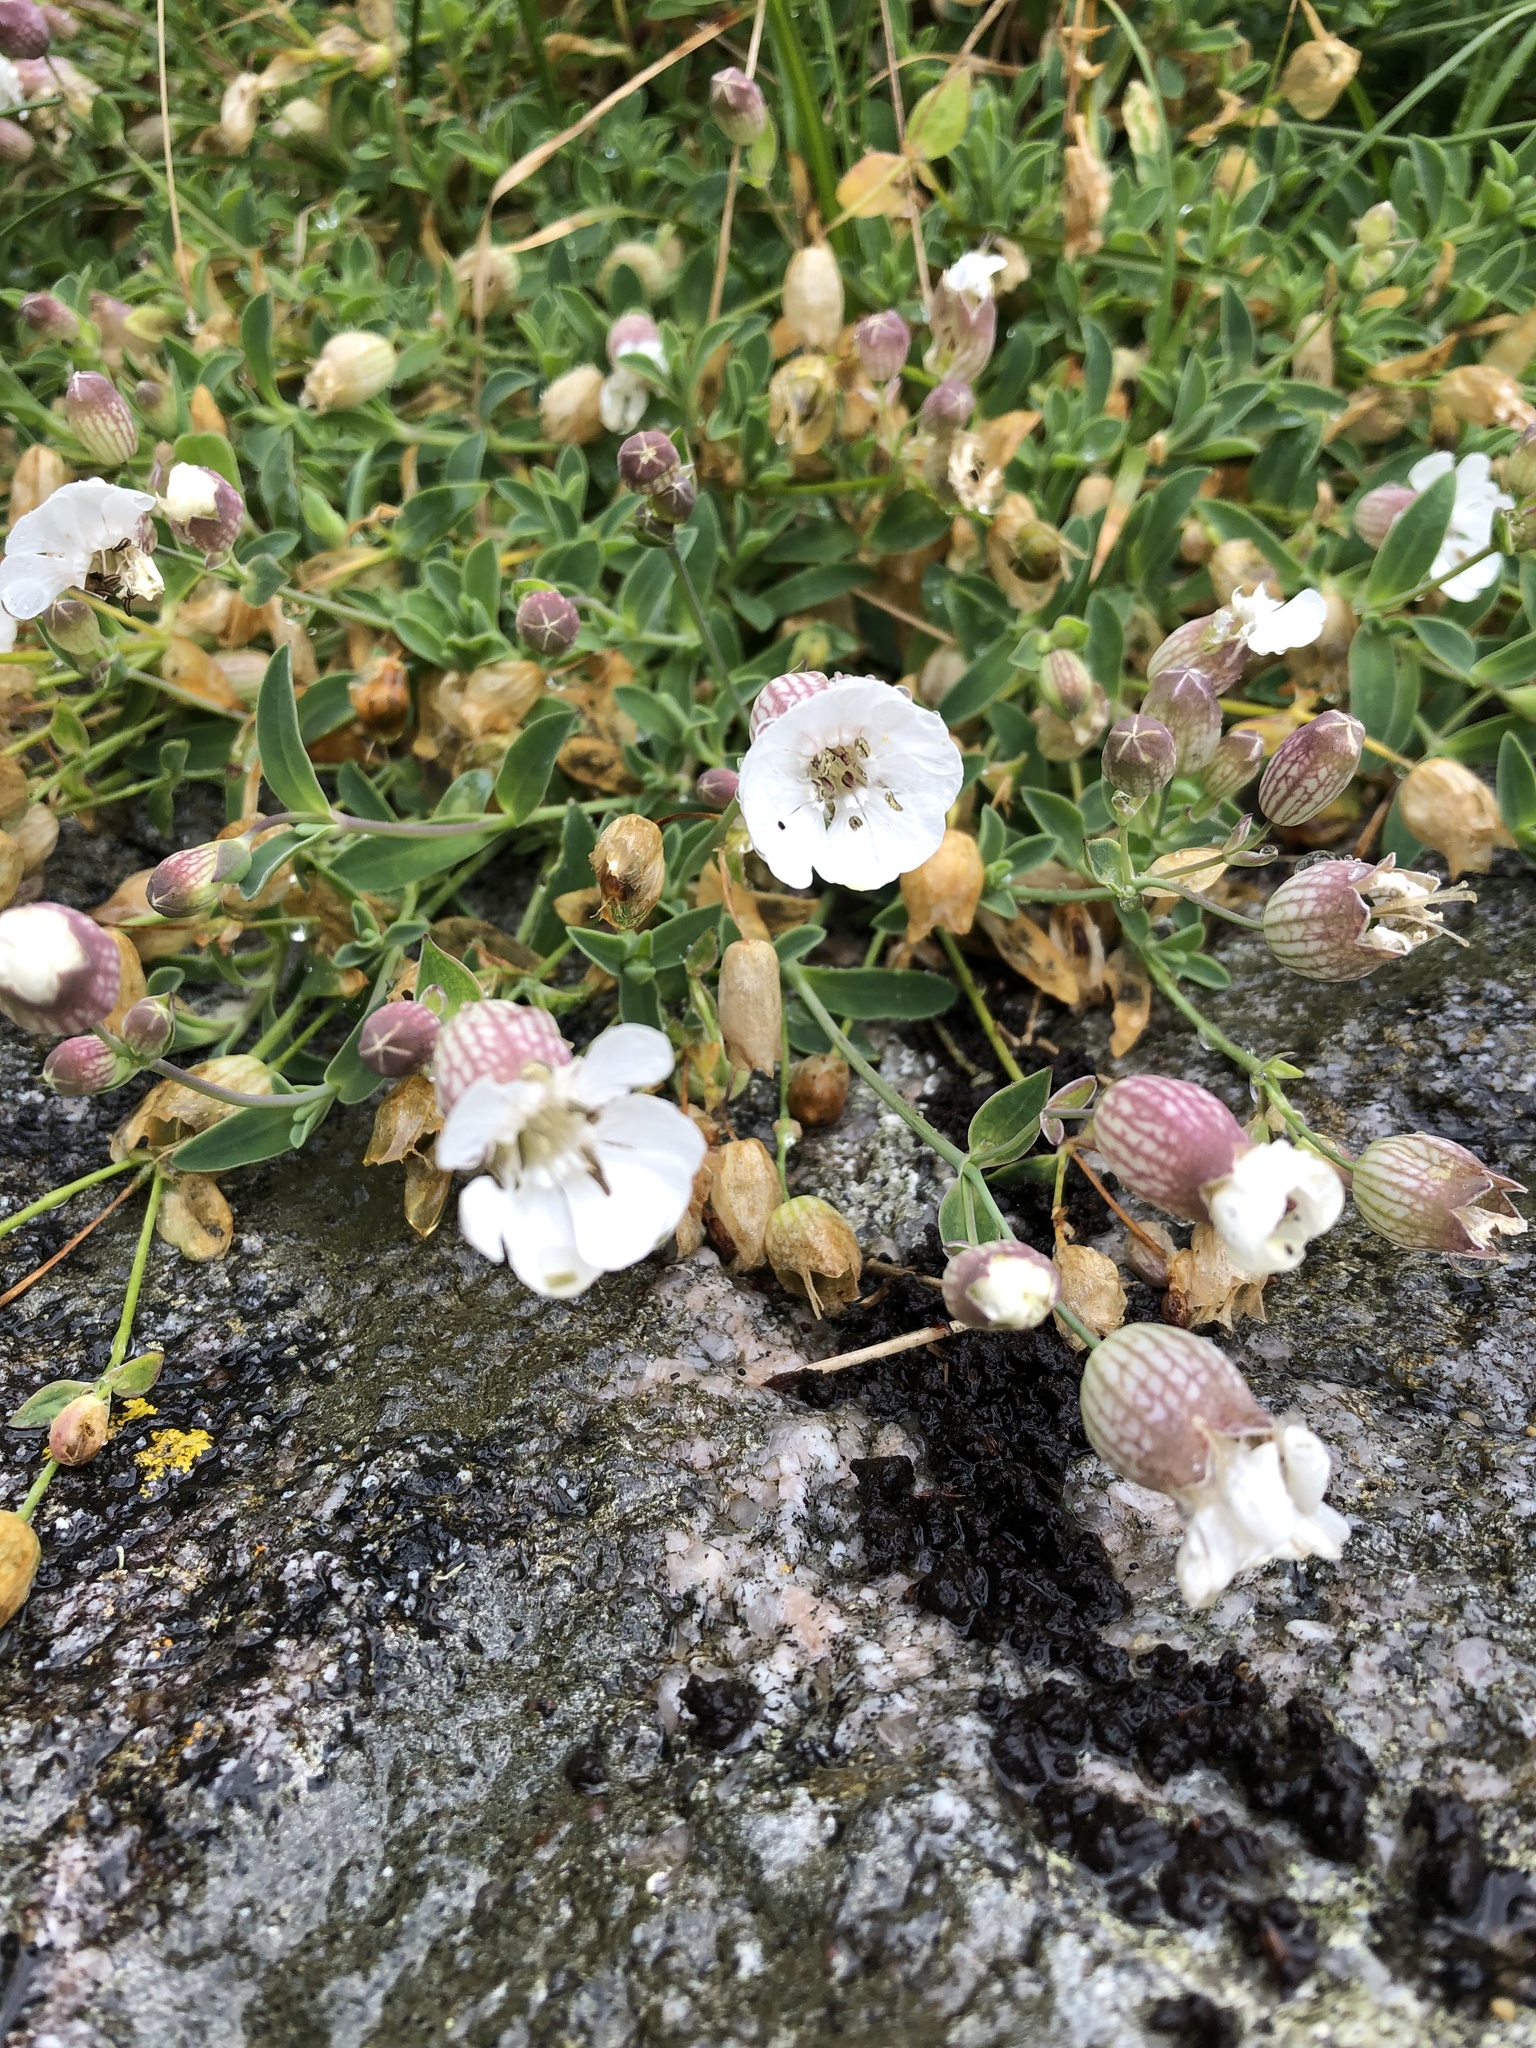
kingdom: Plantae
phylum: Tracheophyta
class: Magnoliopsida
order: Caryophyllales
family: Caryophyllaceae
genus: Silene
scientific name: Silene uniflora
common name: Sea campion
